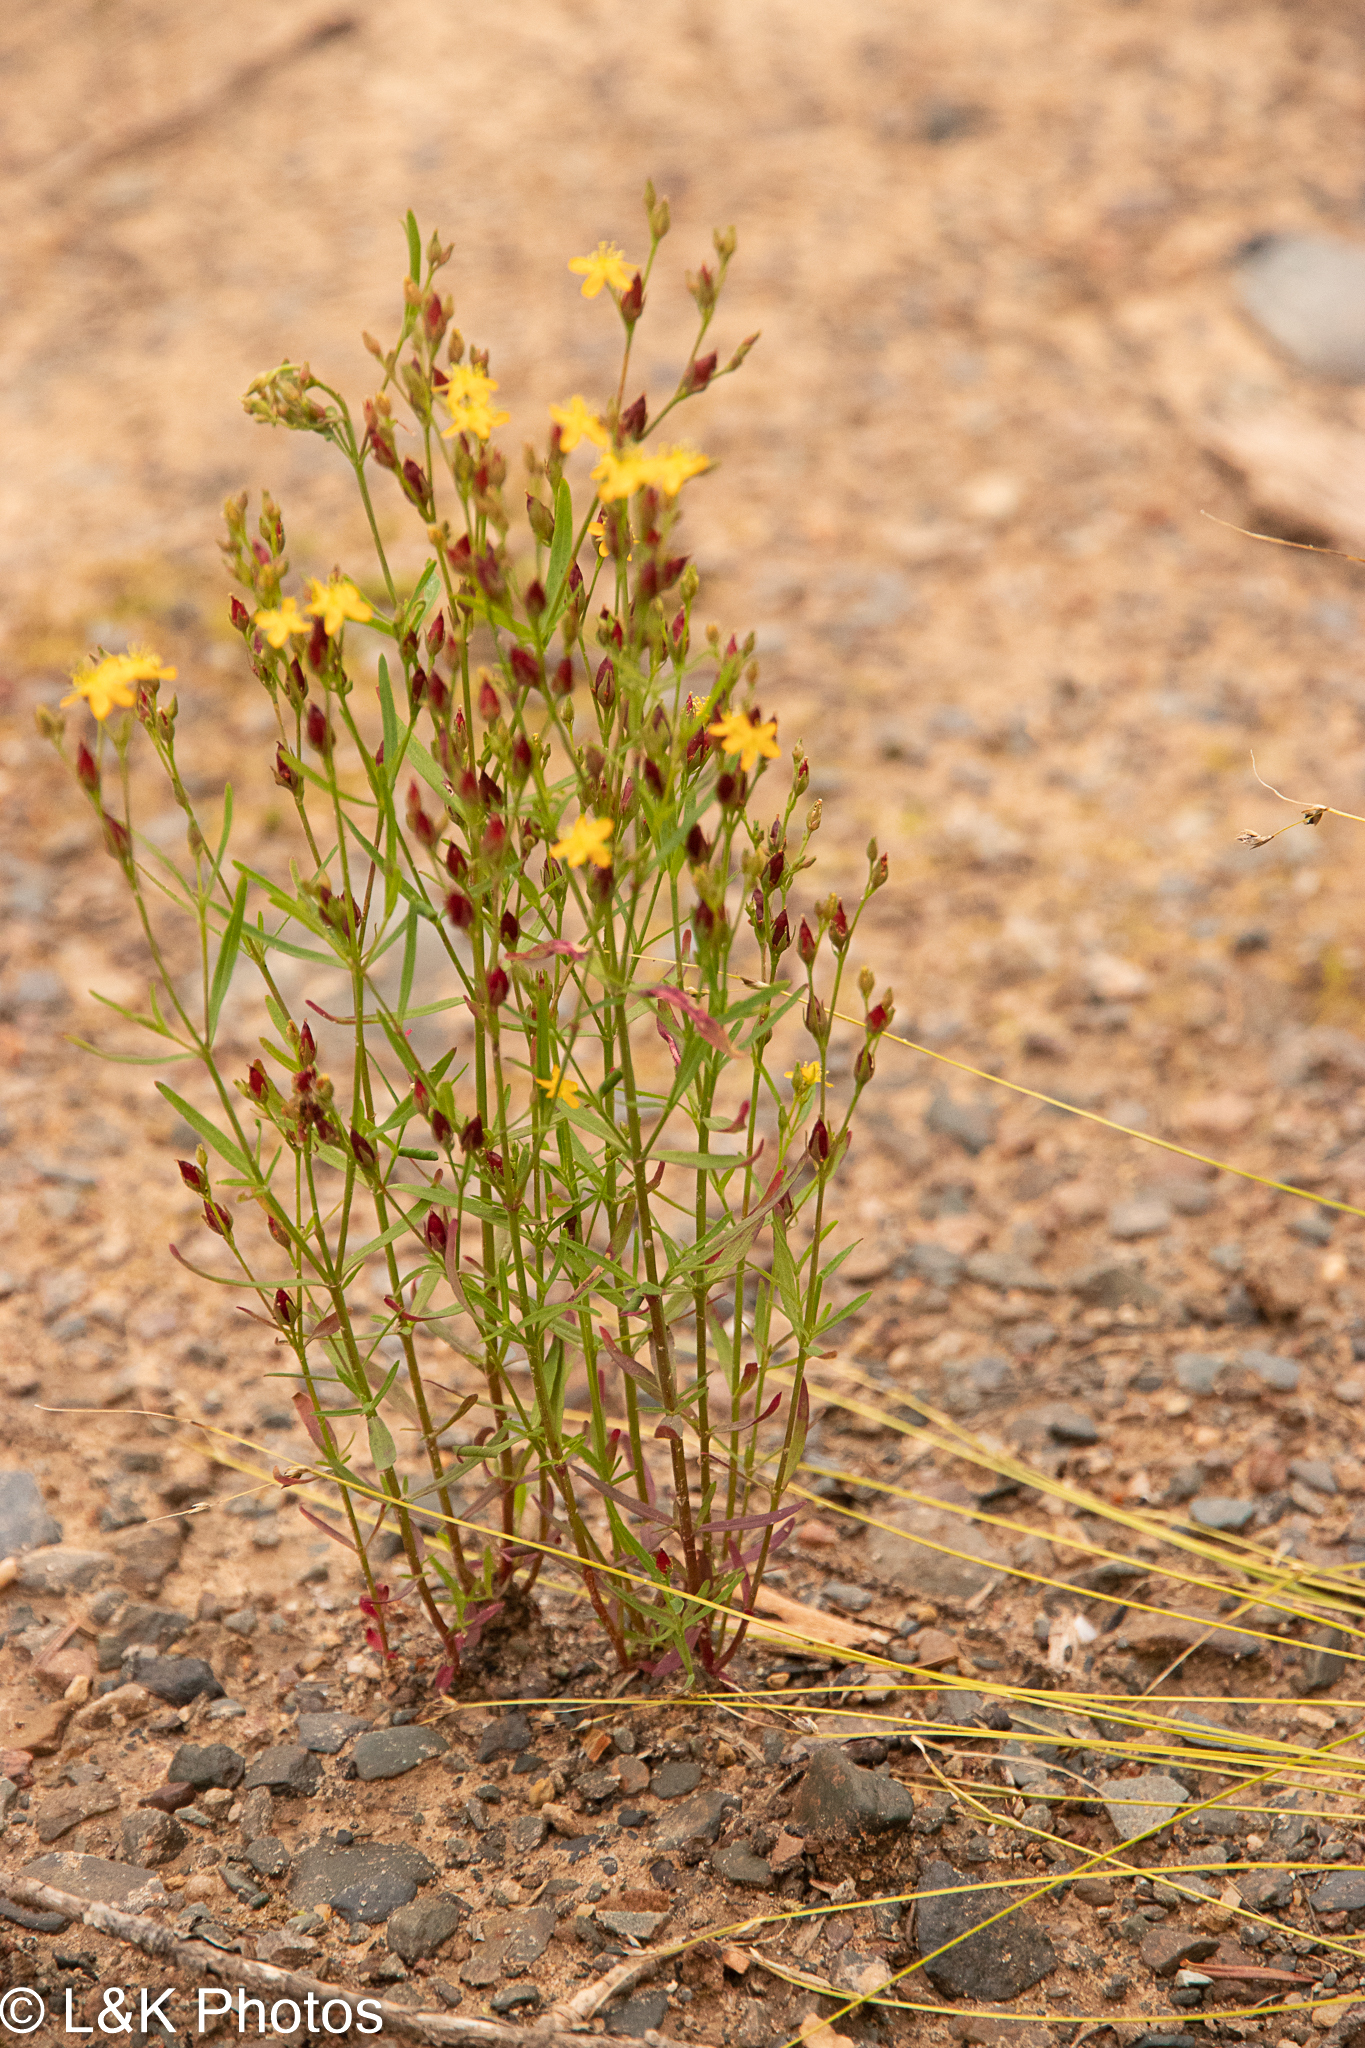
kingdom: Plantae
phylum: Tracheophyta
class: Magnoliopsida
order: Malpighiales
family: Hypericaceae
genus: Hypericum
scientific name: Hypericum canadense
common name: Irish st. john's-wort
